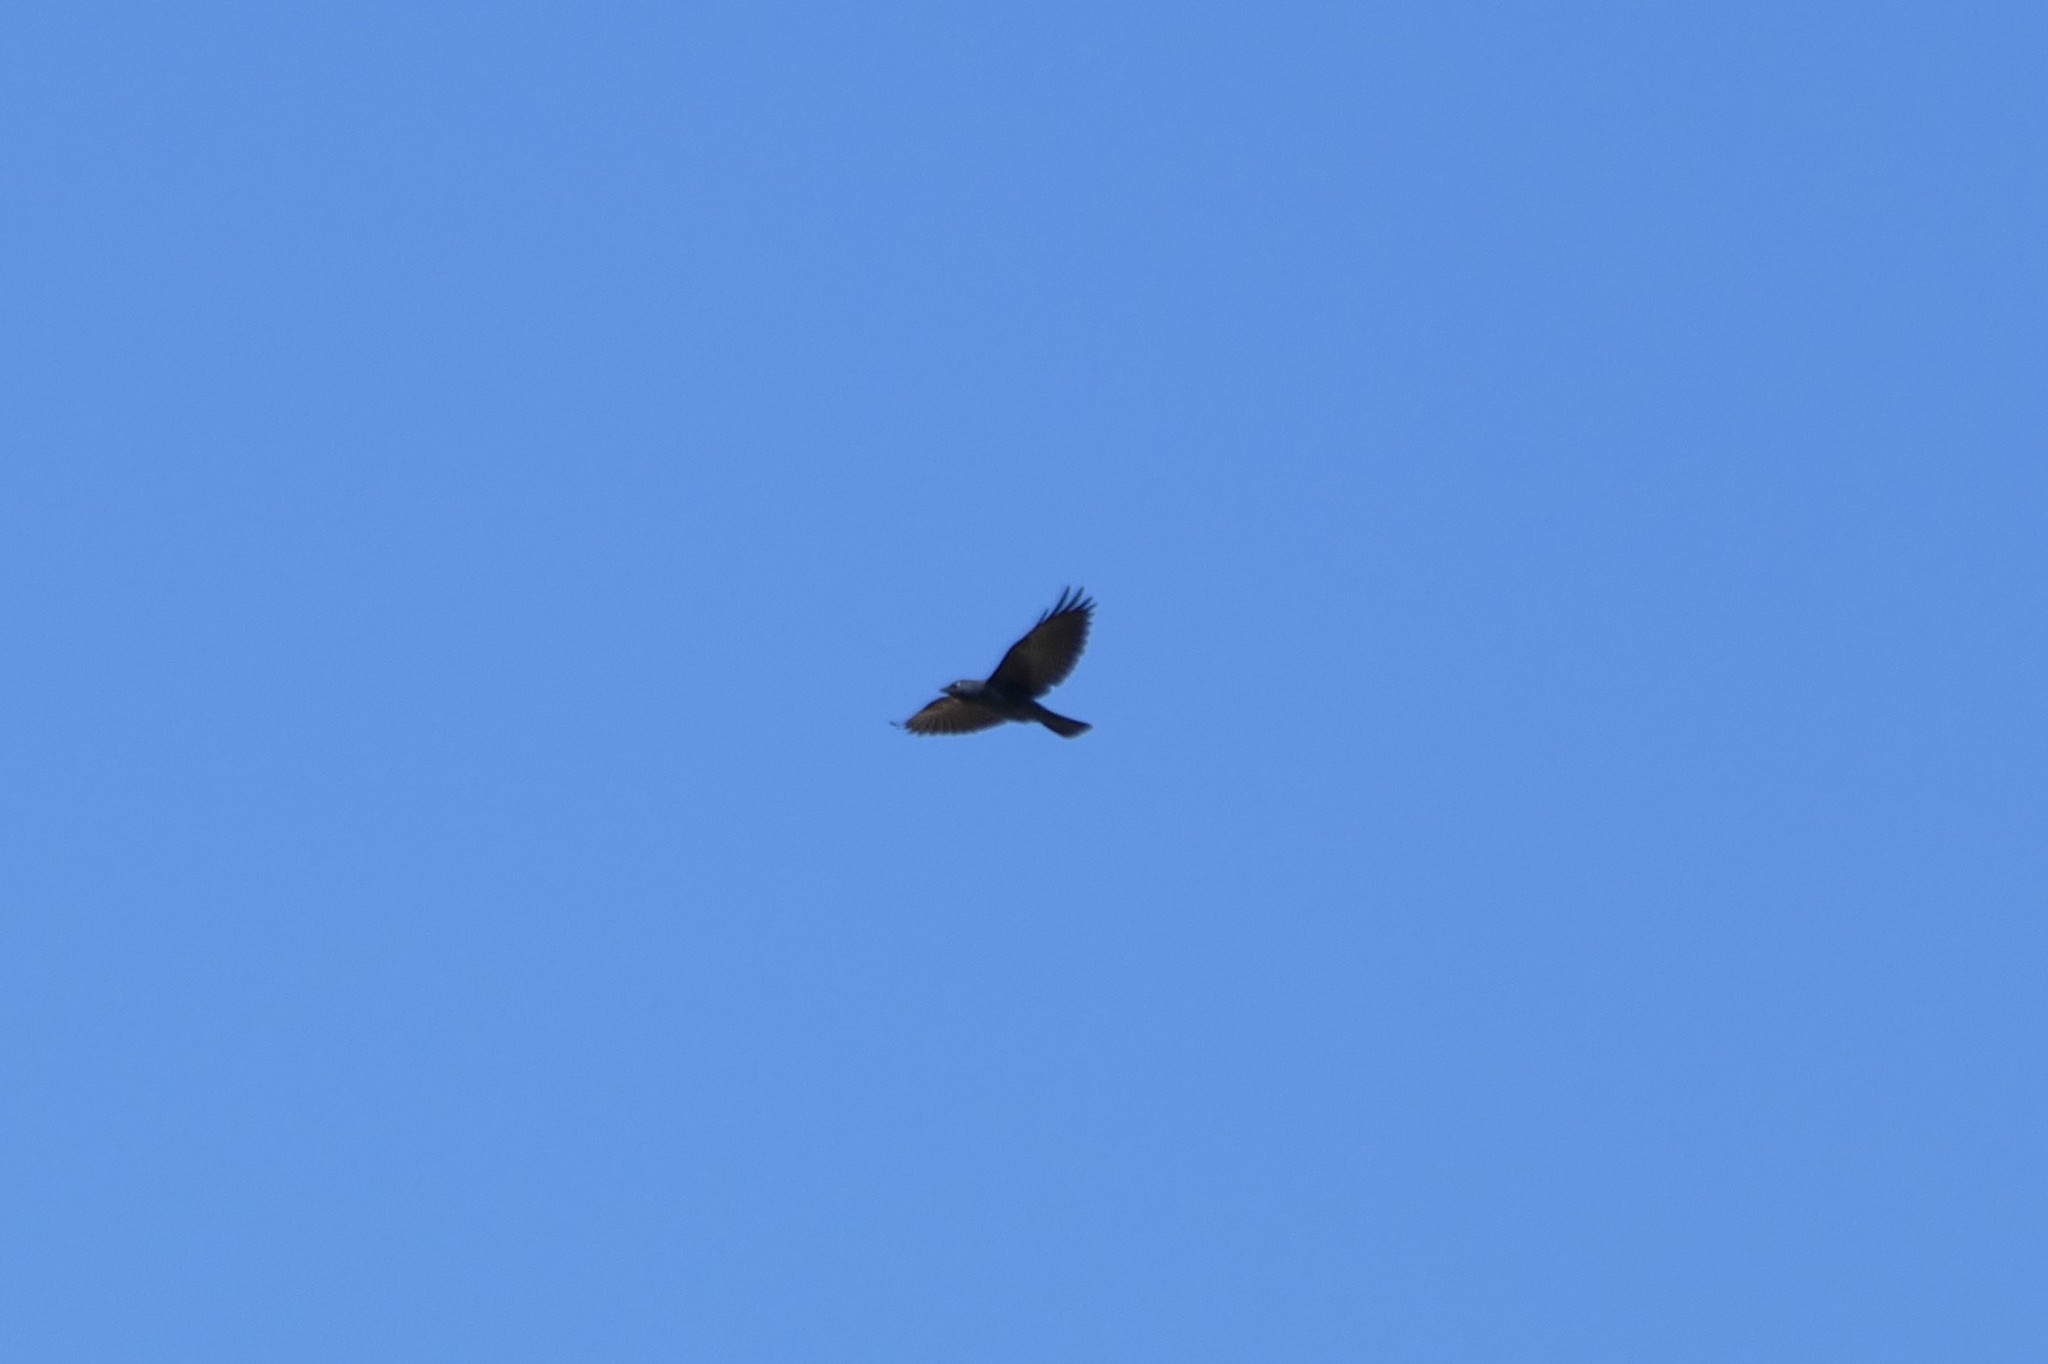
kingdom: Animalia
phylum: Chordata
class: Aves
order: Passeriformes
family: Corvidae
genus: Coloeus
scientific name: Coloeus monedula
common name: Western jackdaw
